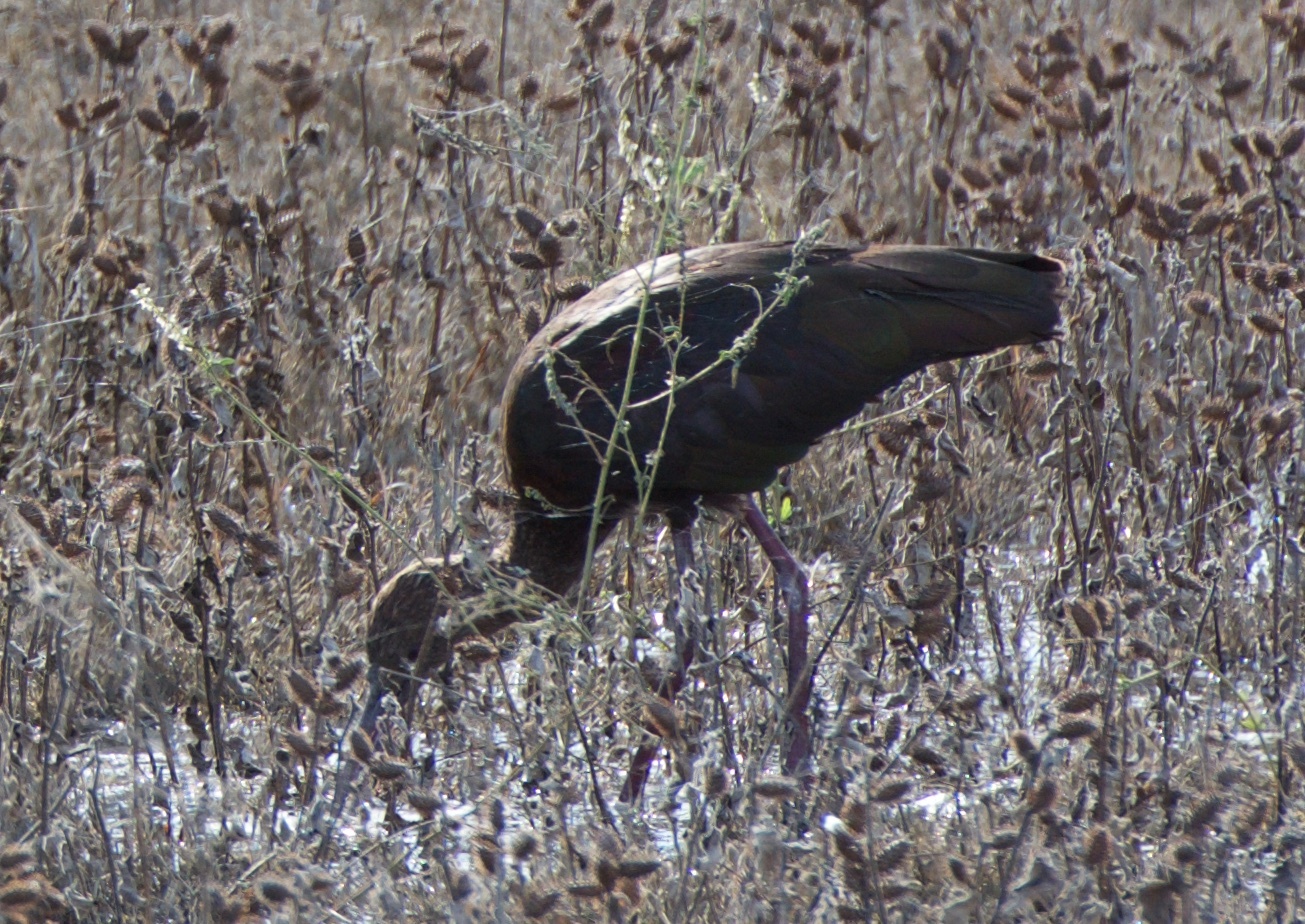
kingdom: Animalia
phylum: Chordata
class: Aves
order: Pelecaniformes
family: Threskiornithidae
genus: Plegadis
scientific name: Plegadis chihi
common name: White-faced ibis
